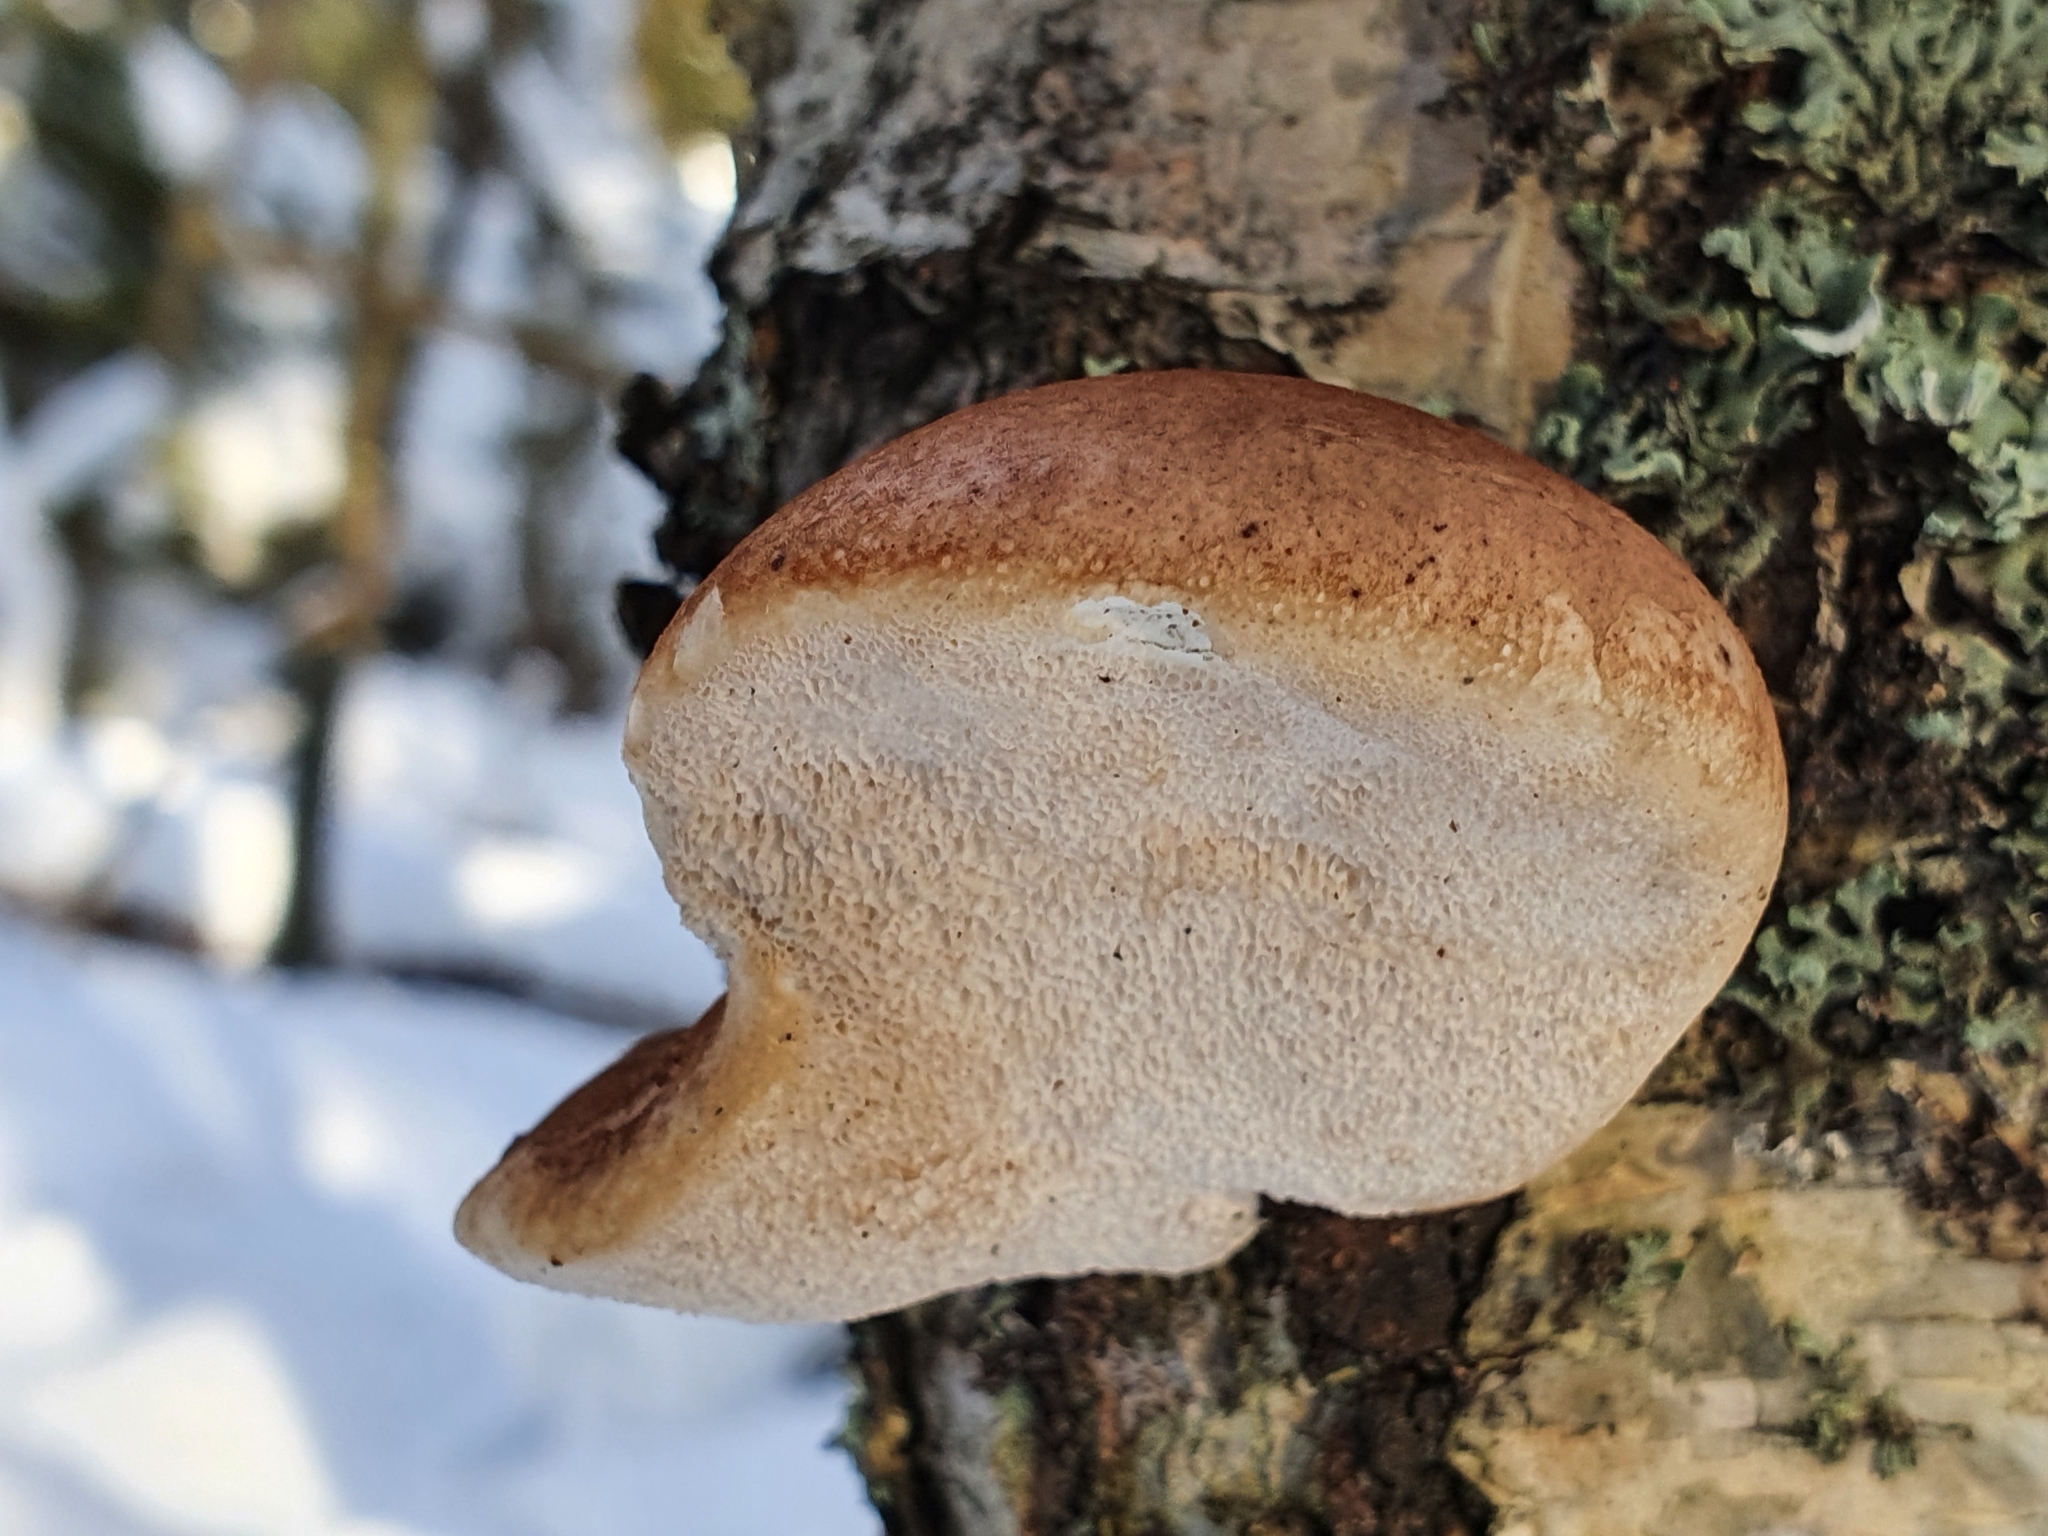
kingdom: Fungi
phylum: Basidiomycota
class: Agaricomycetes
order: Polyporales
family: Fomitopsidaceae
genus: Fomitopsis
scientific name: Fomitopsis betulina
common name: Birch polypore
